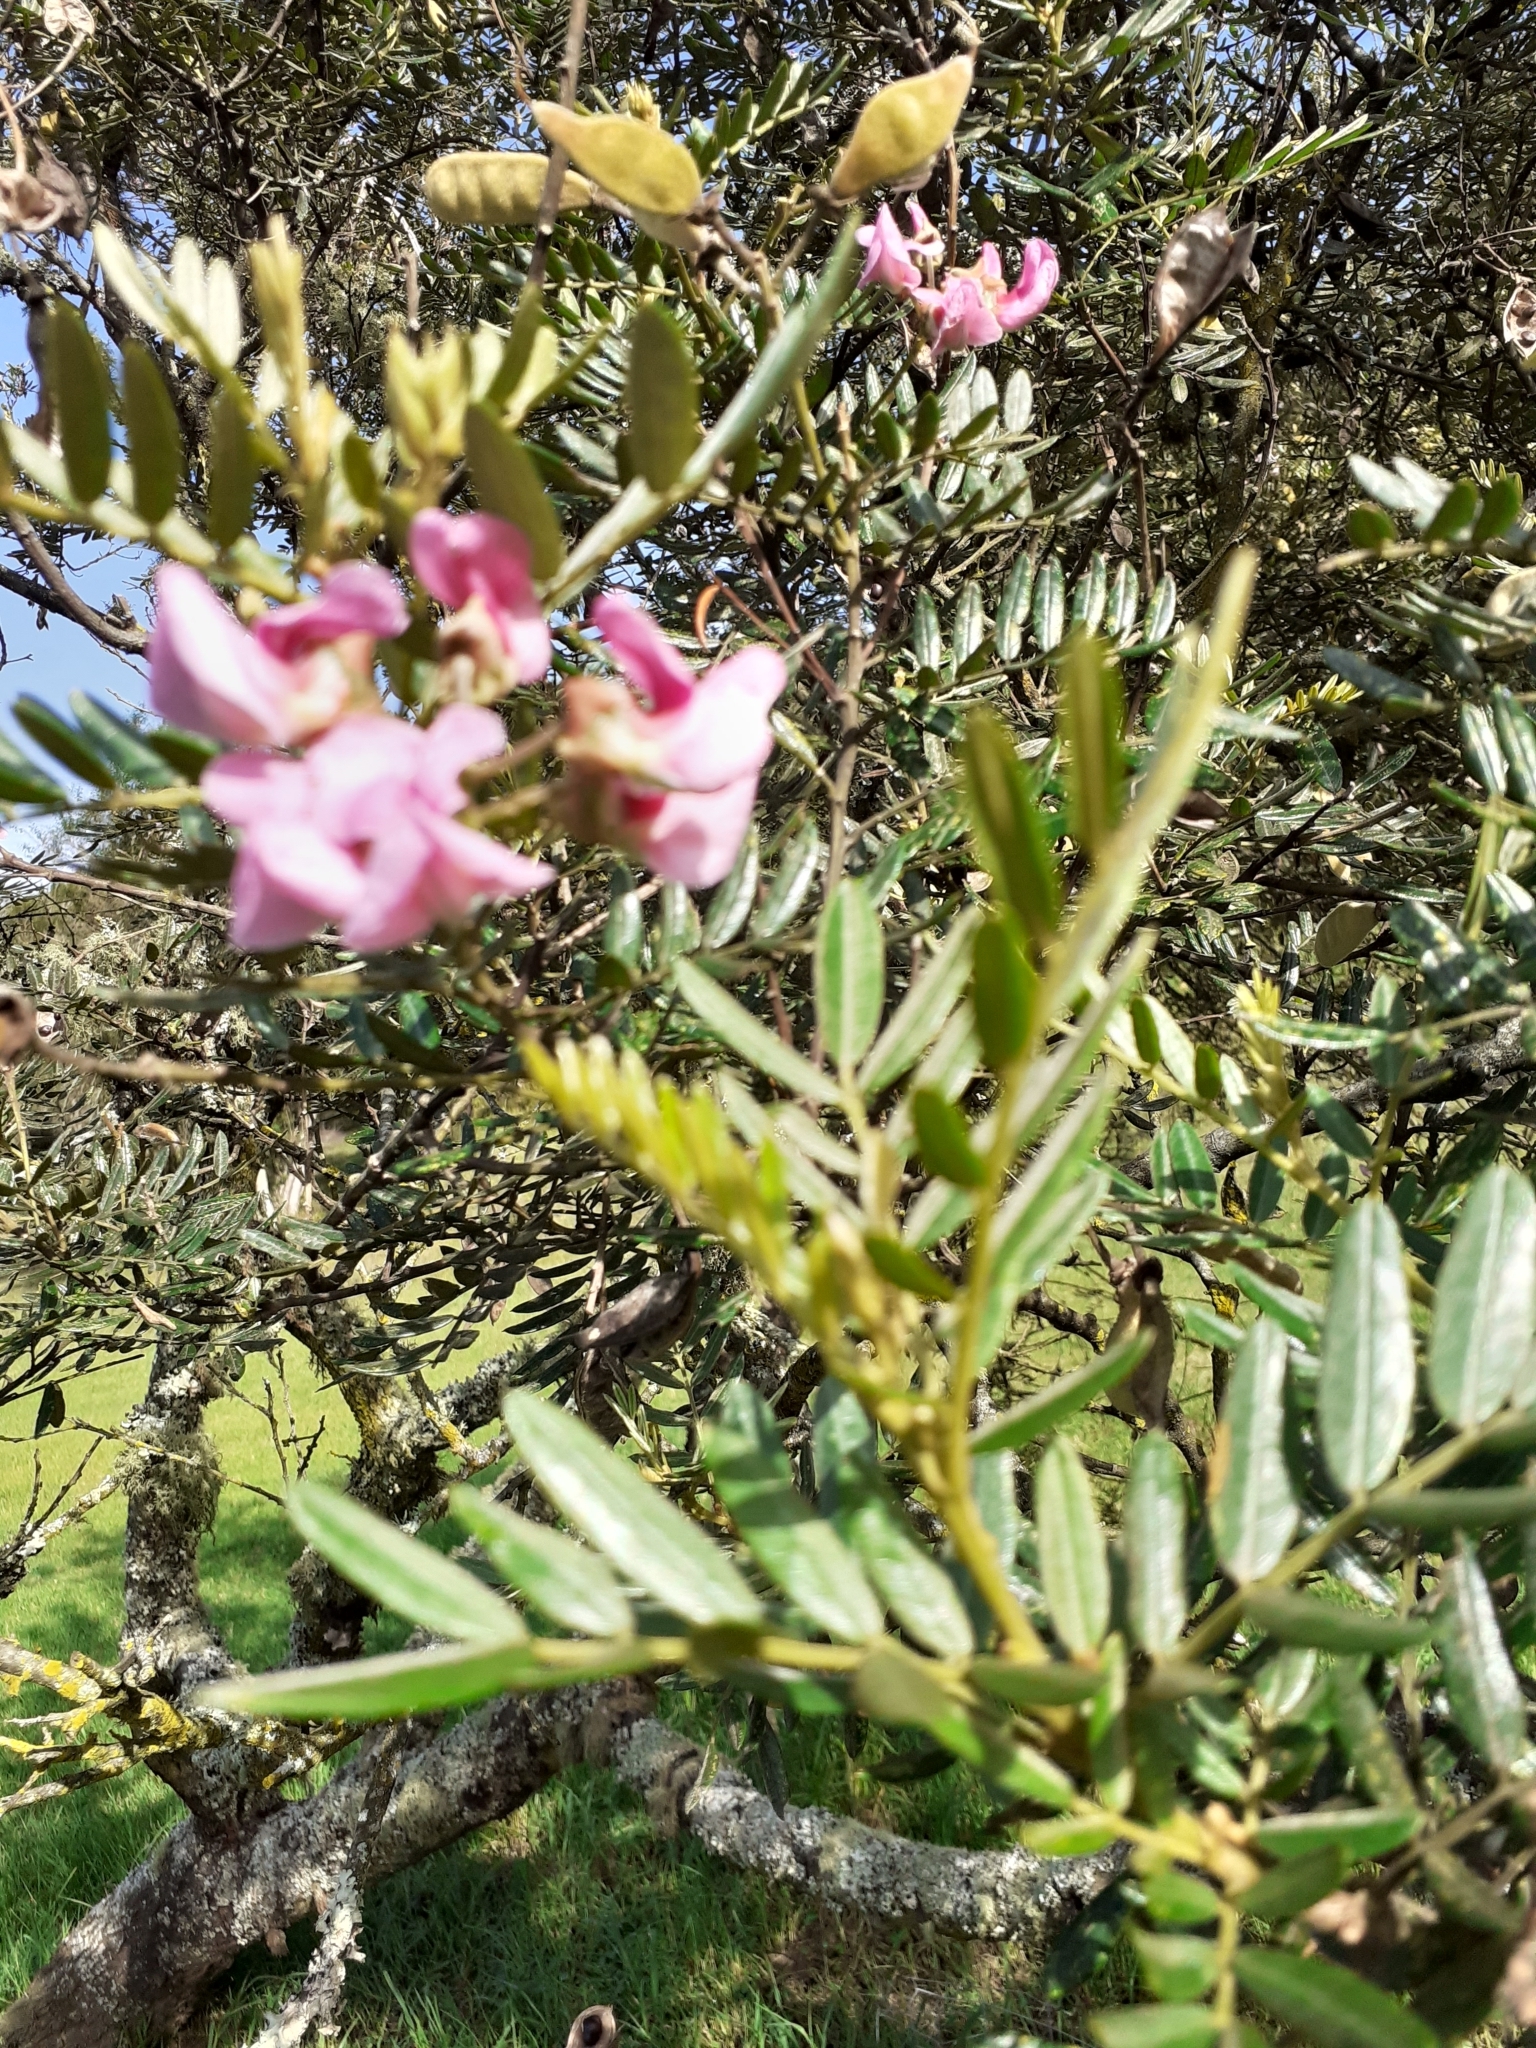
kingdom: Plantae
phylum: Tracheophyta
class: Magnoliopsida
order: Fabales
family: Fabaceae
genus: Virgilia
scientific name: Virgilia divaricata
